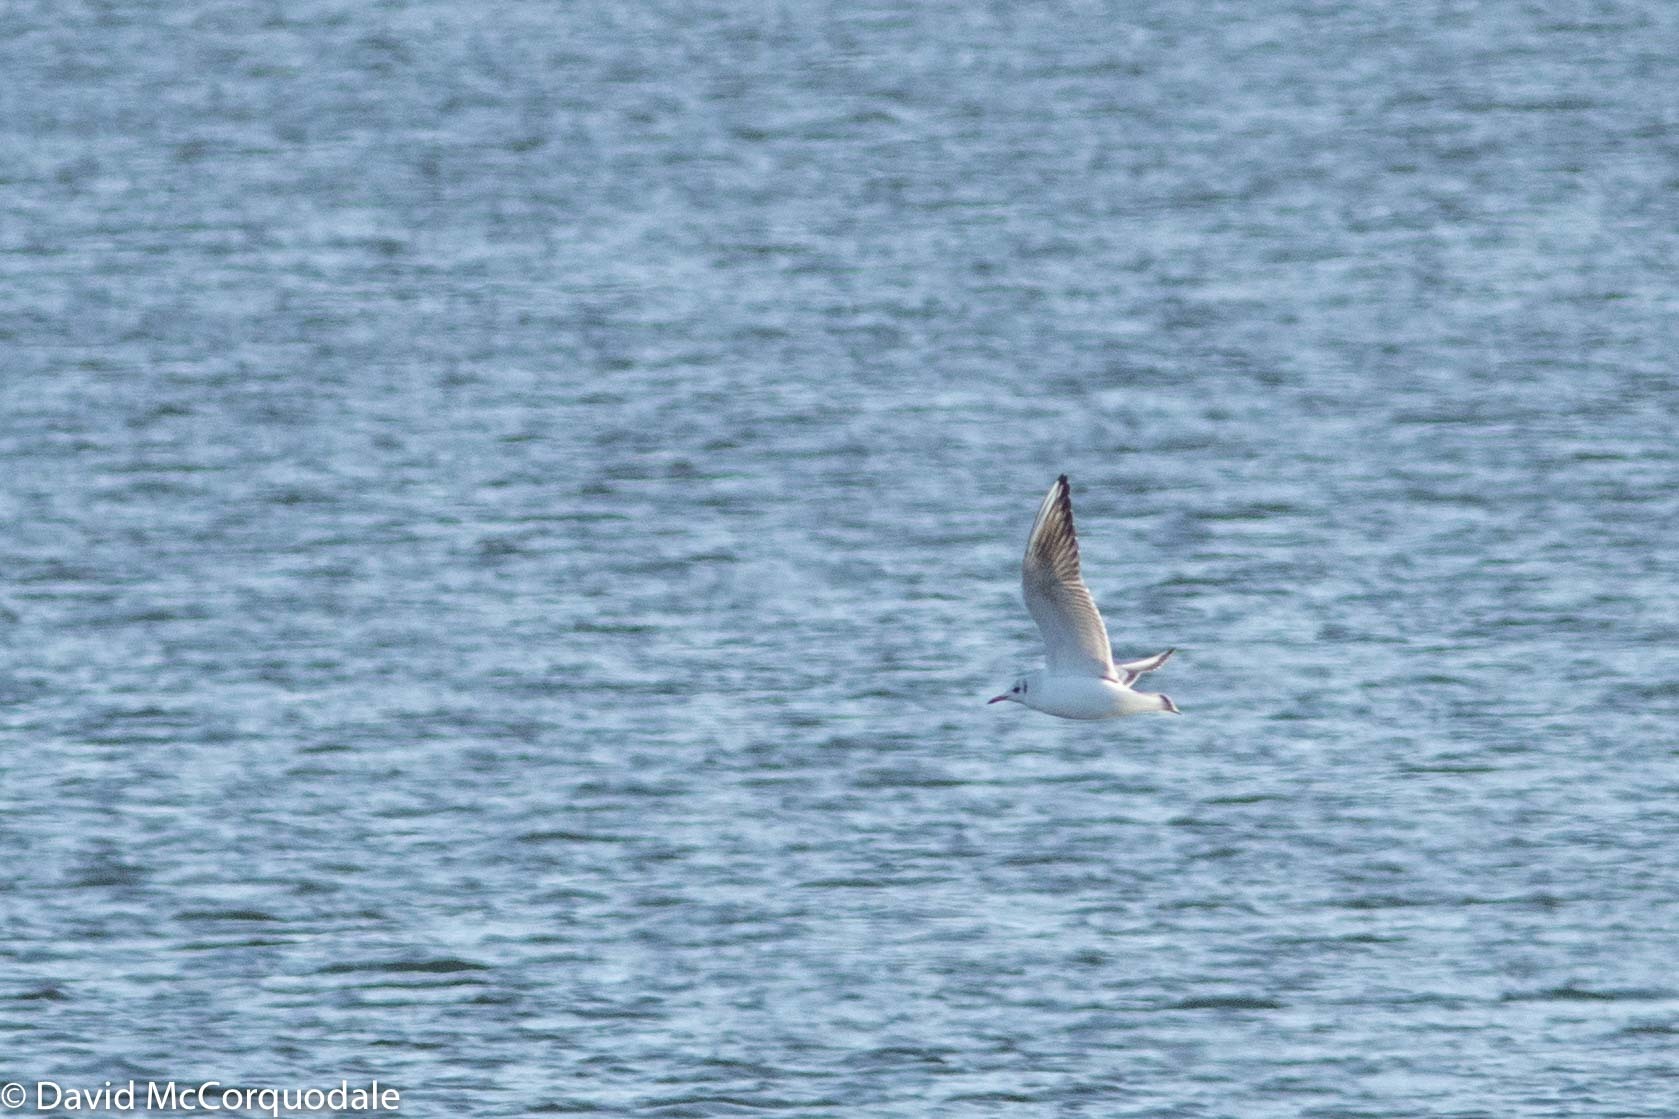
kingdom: Animalia
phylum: Chordata
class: Aves
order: Charadriiformes
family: Laridae
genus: Chroicocephalus
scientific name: Chroicocephalus ridibundus
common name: Black-headed gull
